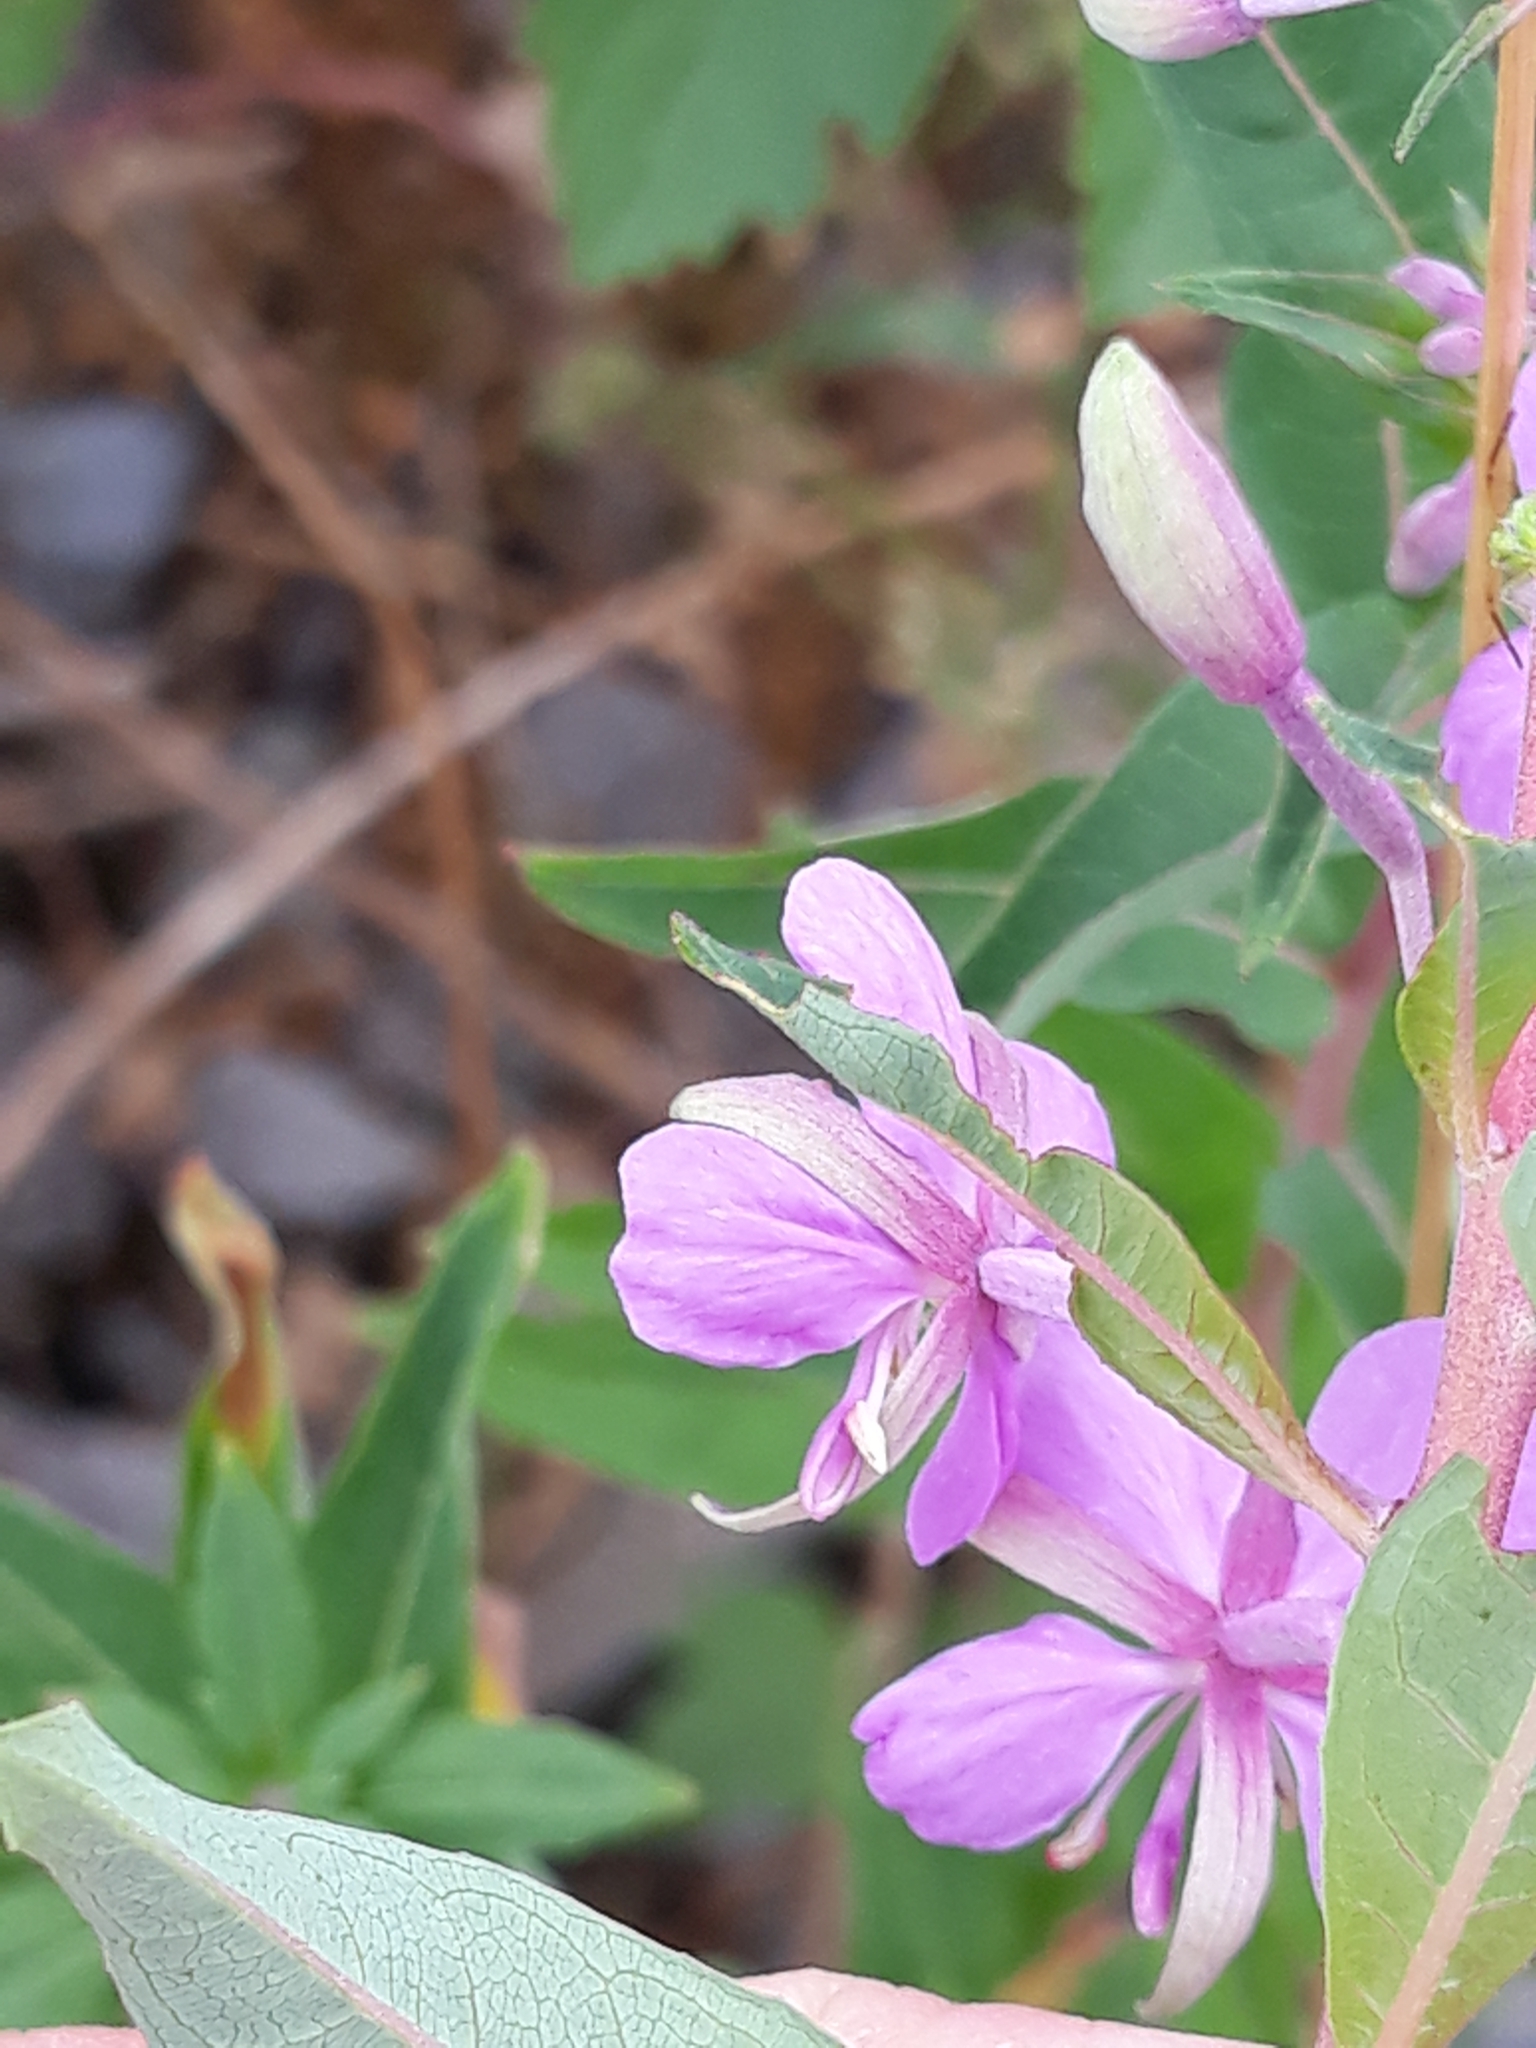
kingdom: Plantae
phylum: Tracheophyta
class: Magnoliopsida
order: Myrtales
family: Onagraceae
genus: Chamaenerion
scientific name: Chamaenerion angustifolium
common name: Fireweed
